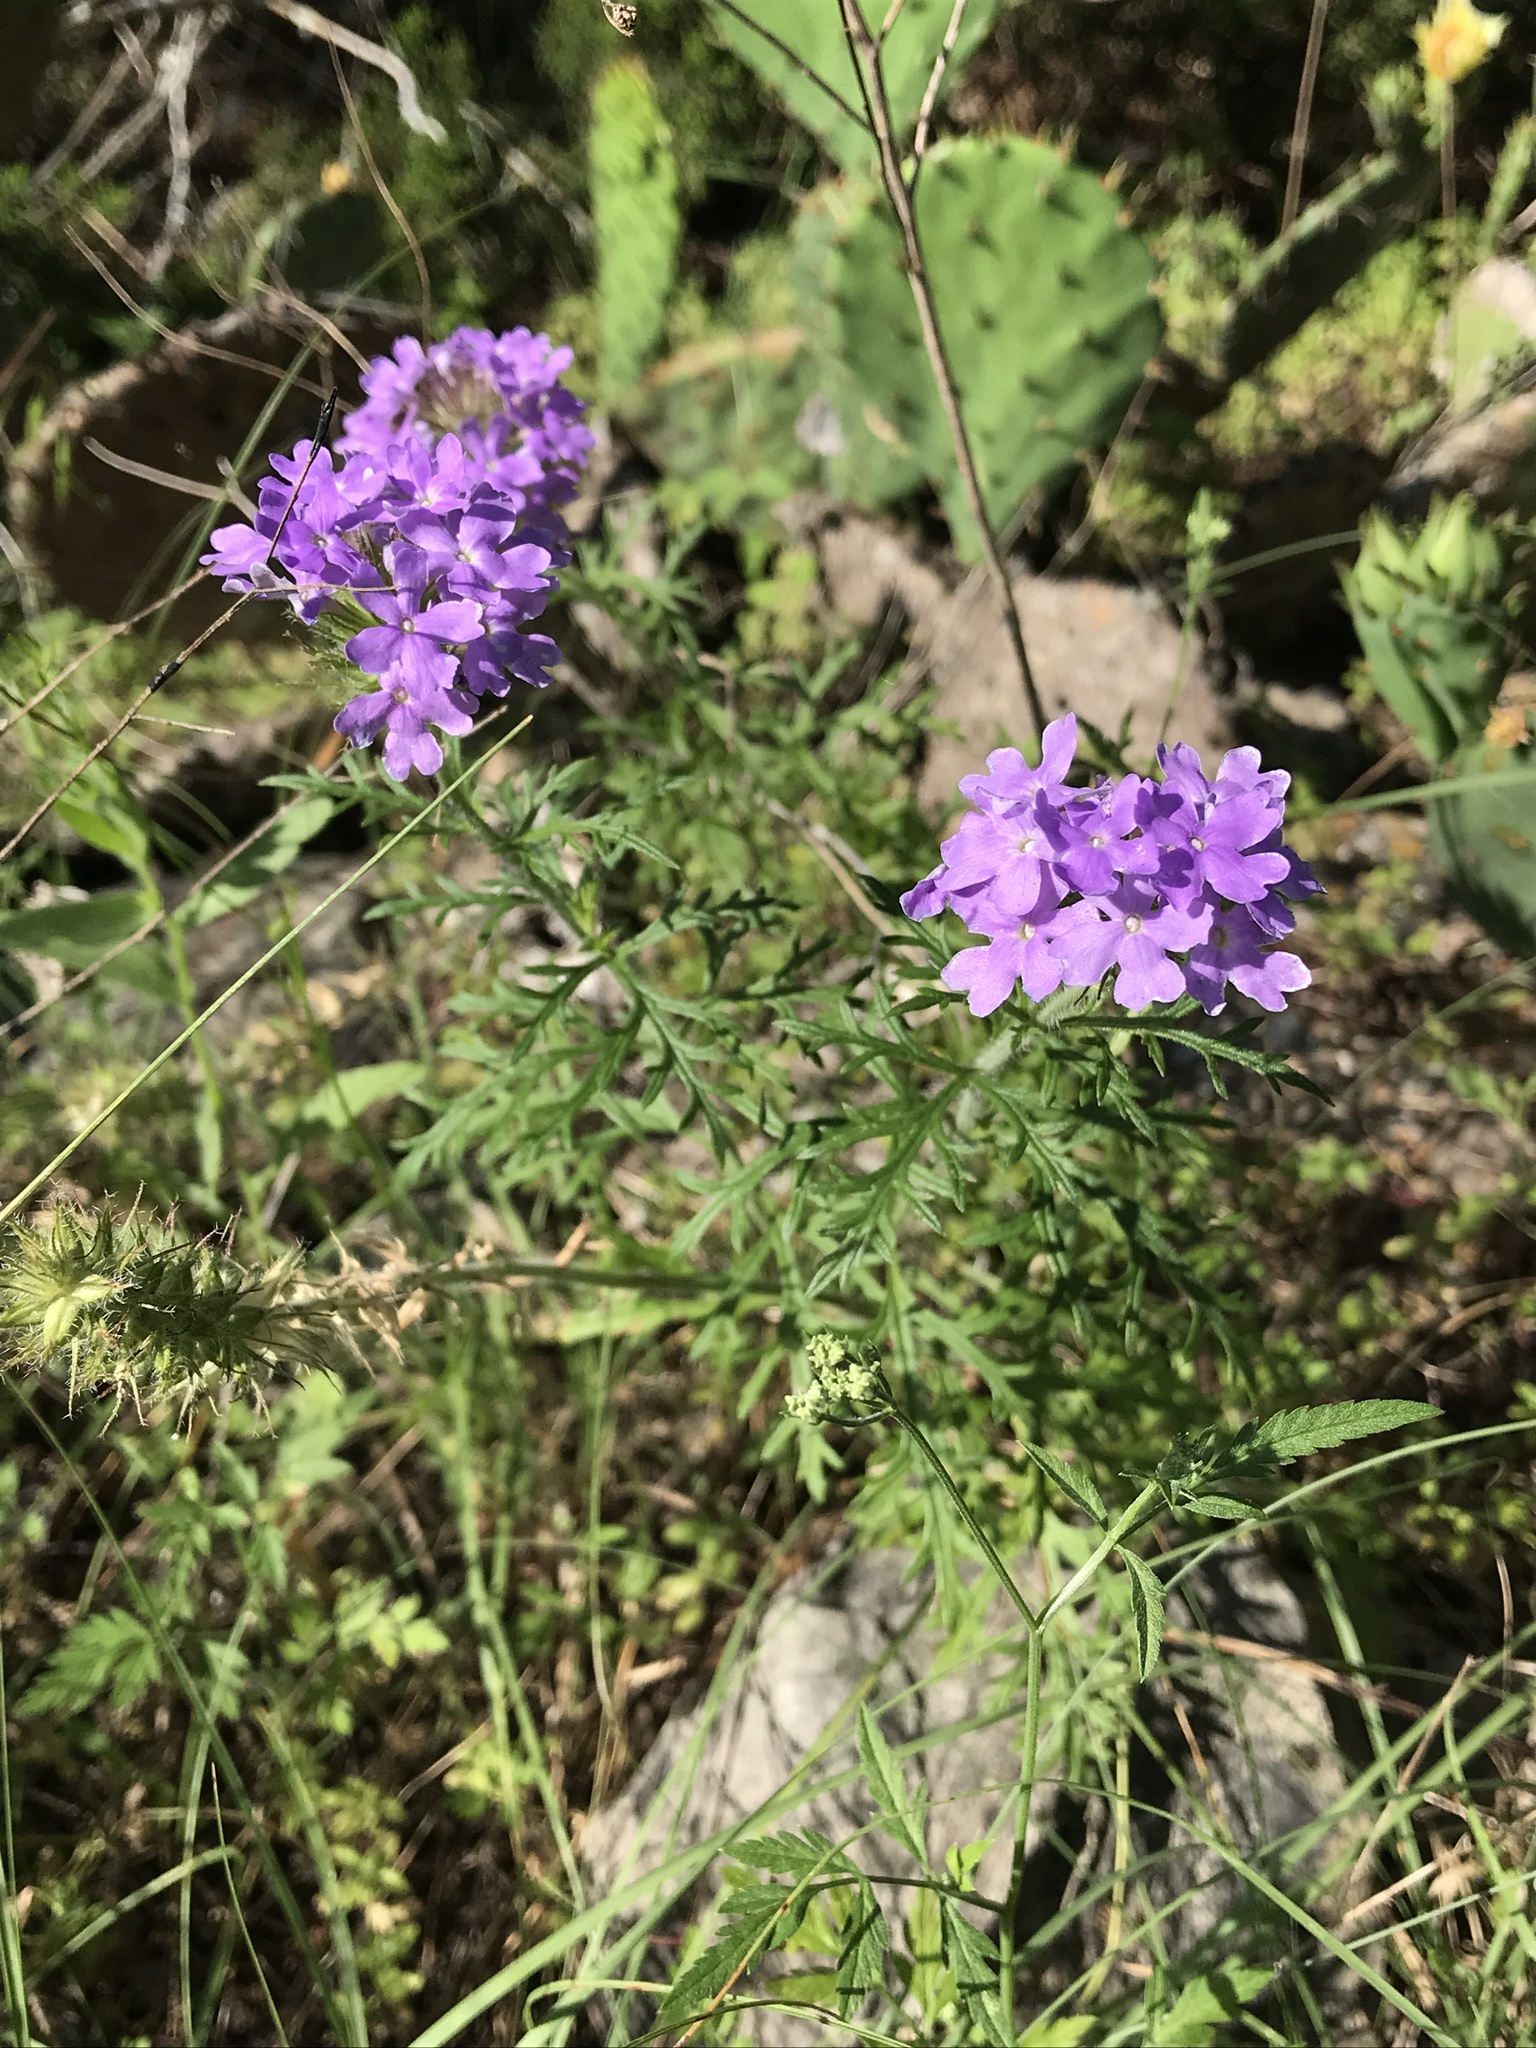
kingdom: Plantae
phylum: Tracheophyta
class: Magnoliopsida
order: Lamiales
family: Verbenaceae
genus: Verbena
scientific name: Verbena bipinnatifida
